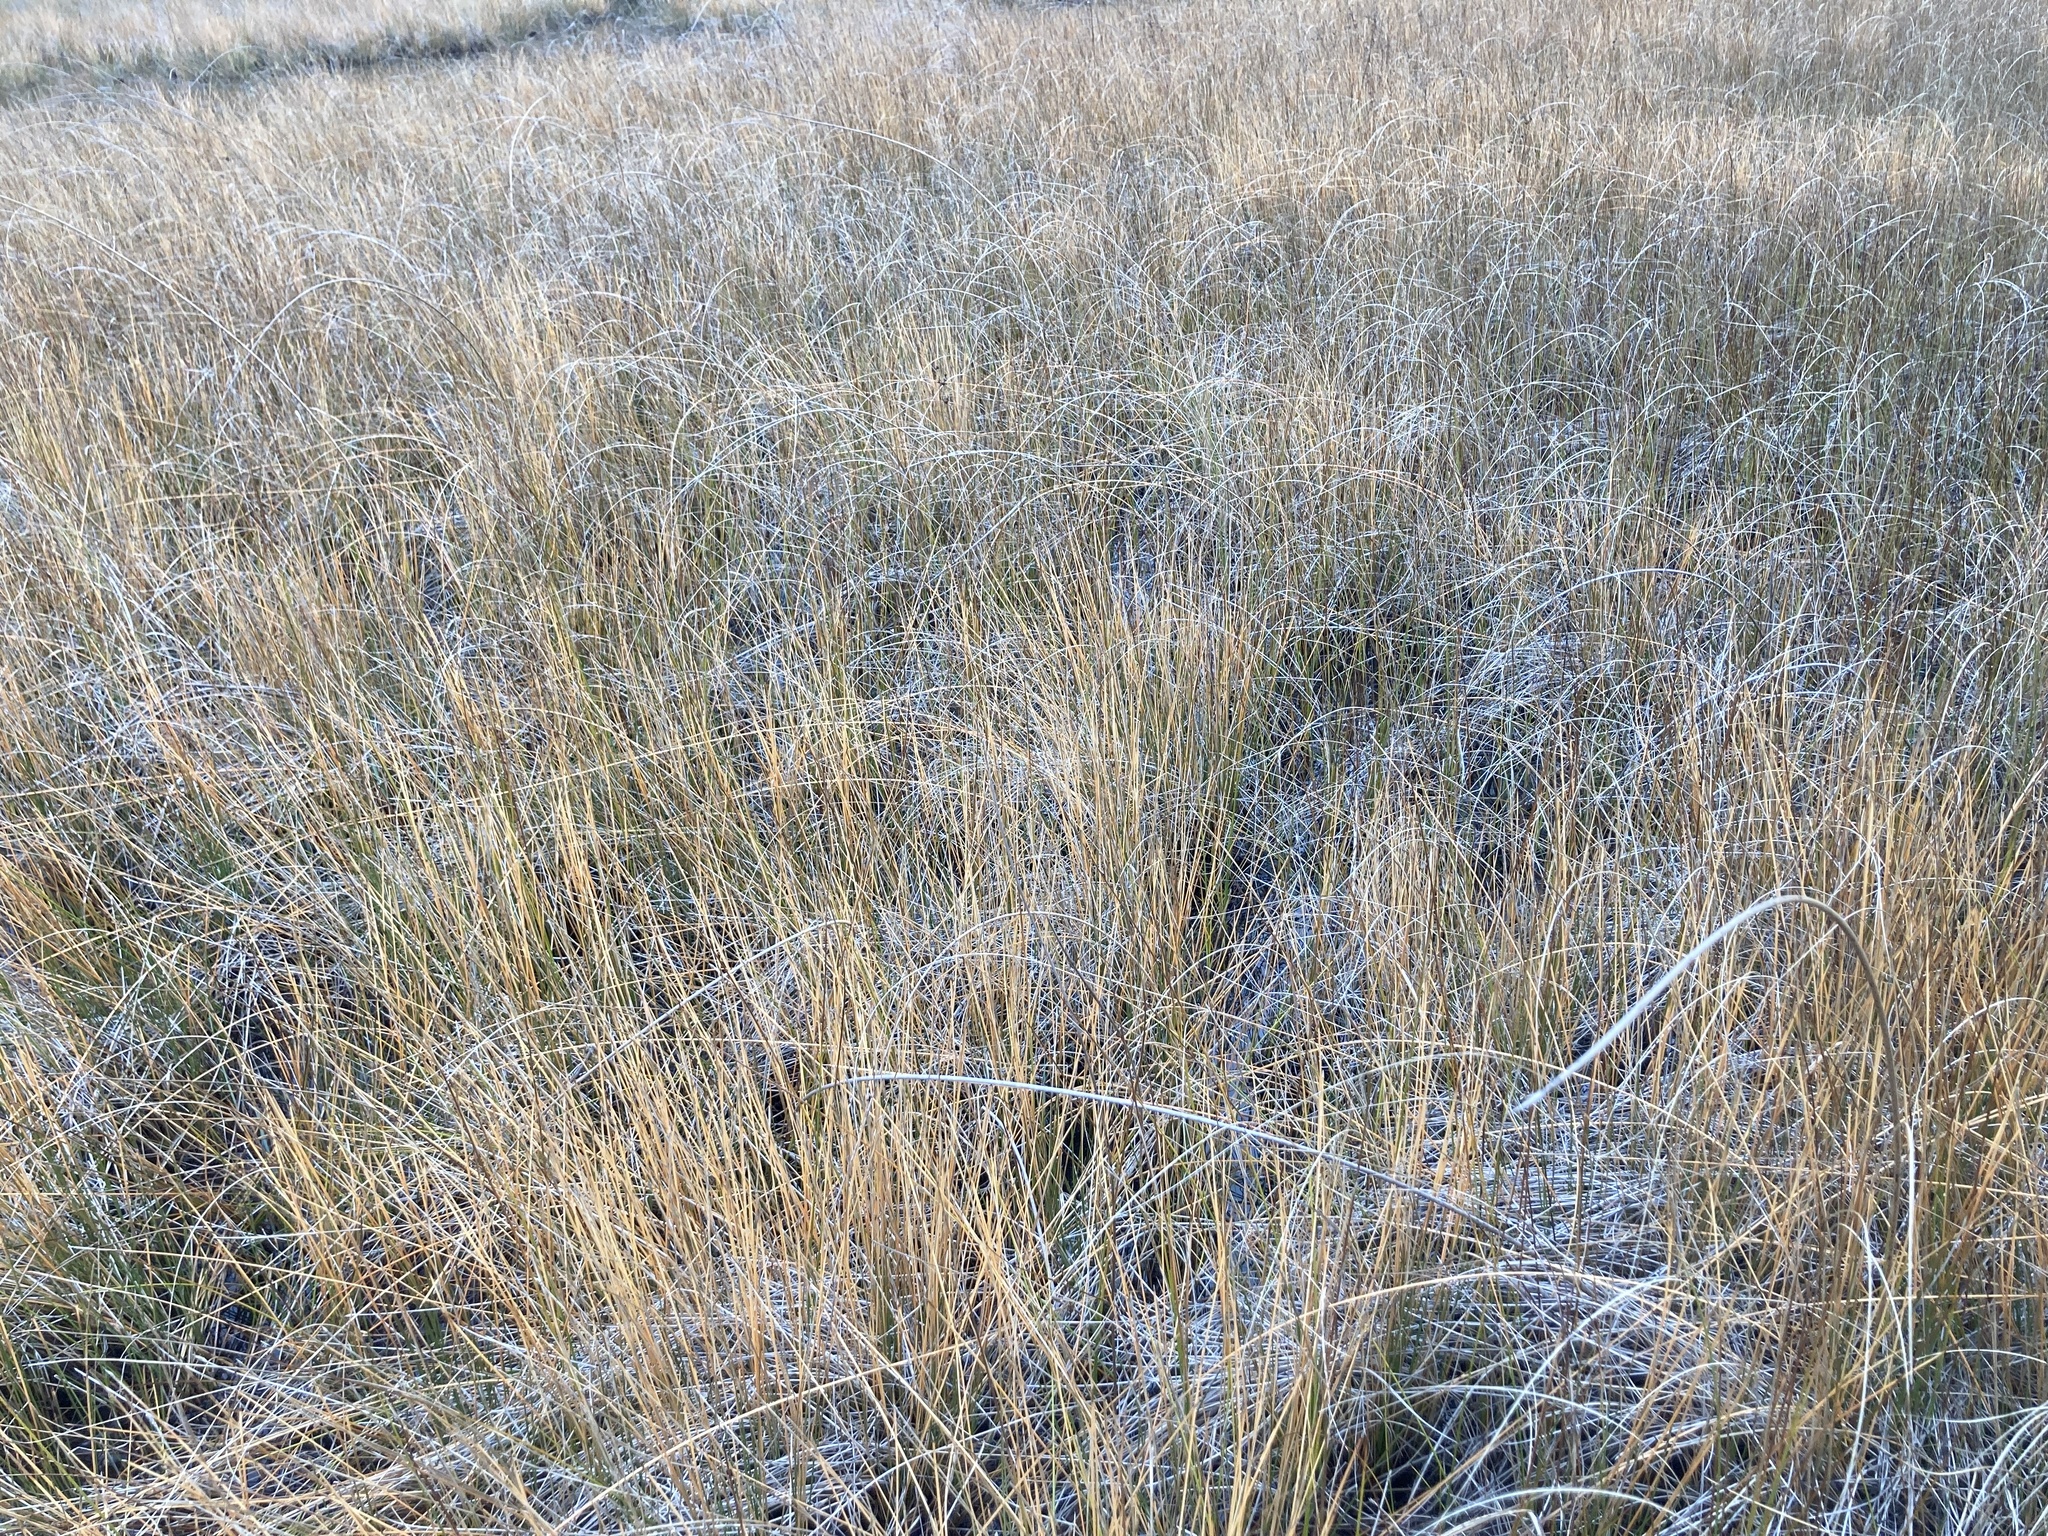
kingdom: Plantae
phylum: Tracheophyta
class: Liliopsida
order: Poales
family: Cyperaceae
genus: Eleocharis
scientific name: Eleocharis rostellata
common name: Walking sedge
